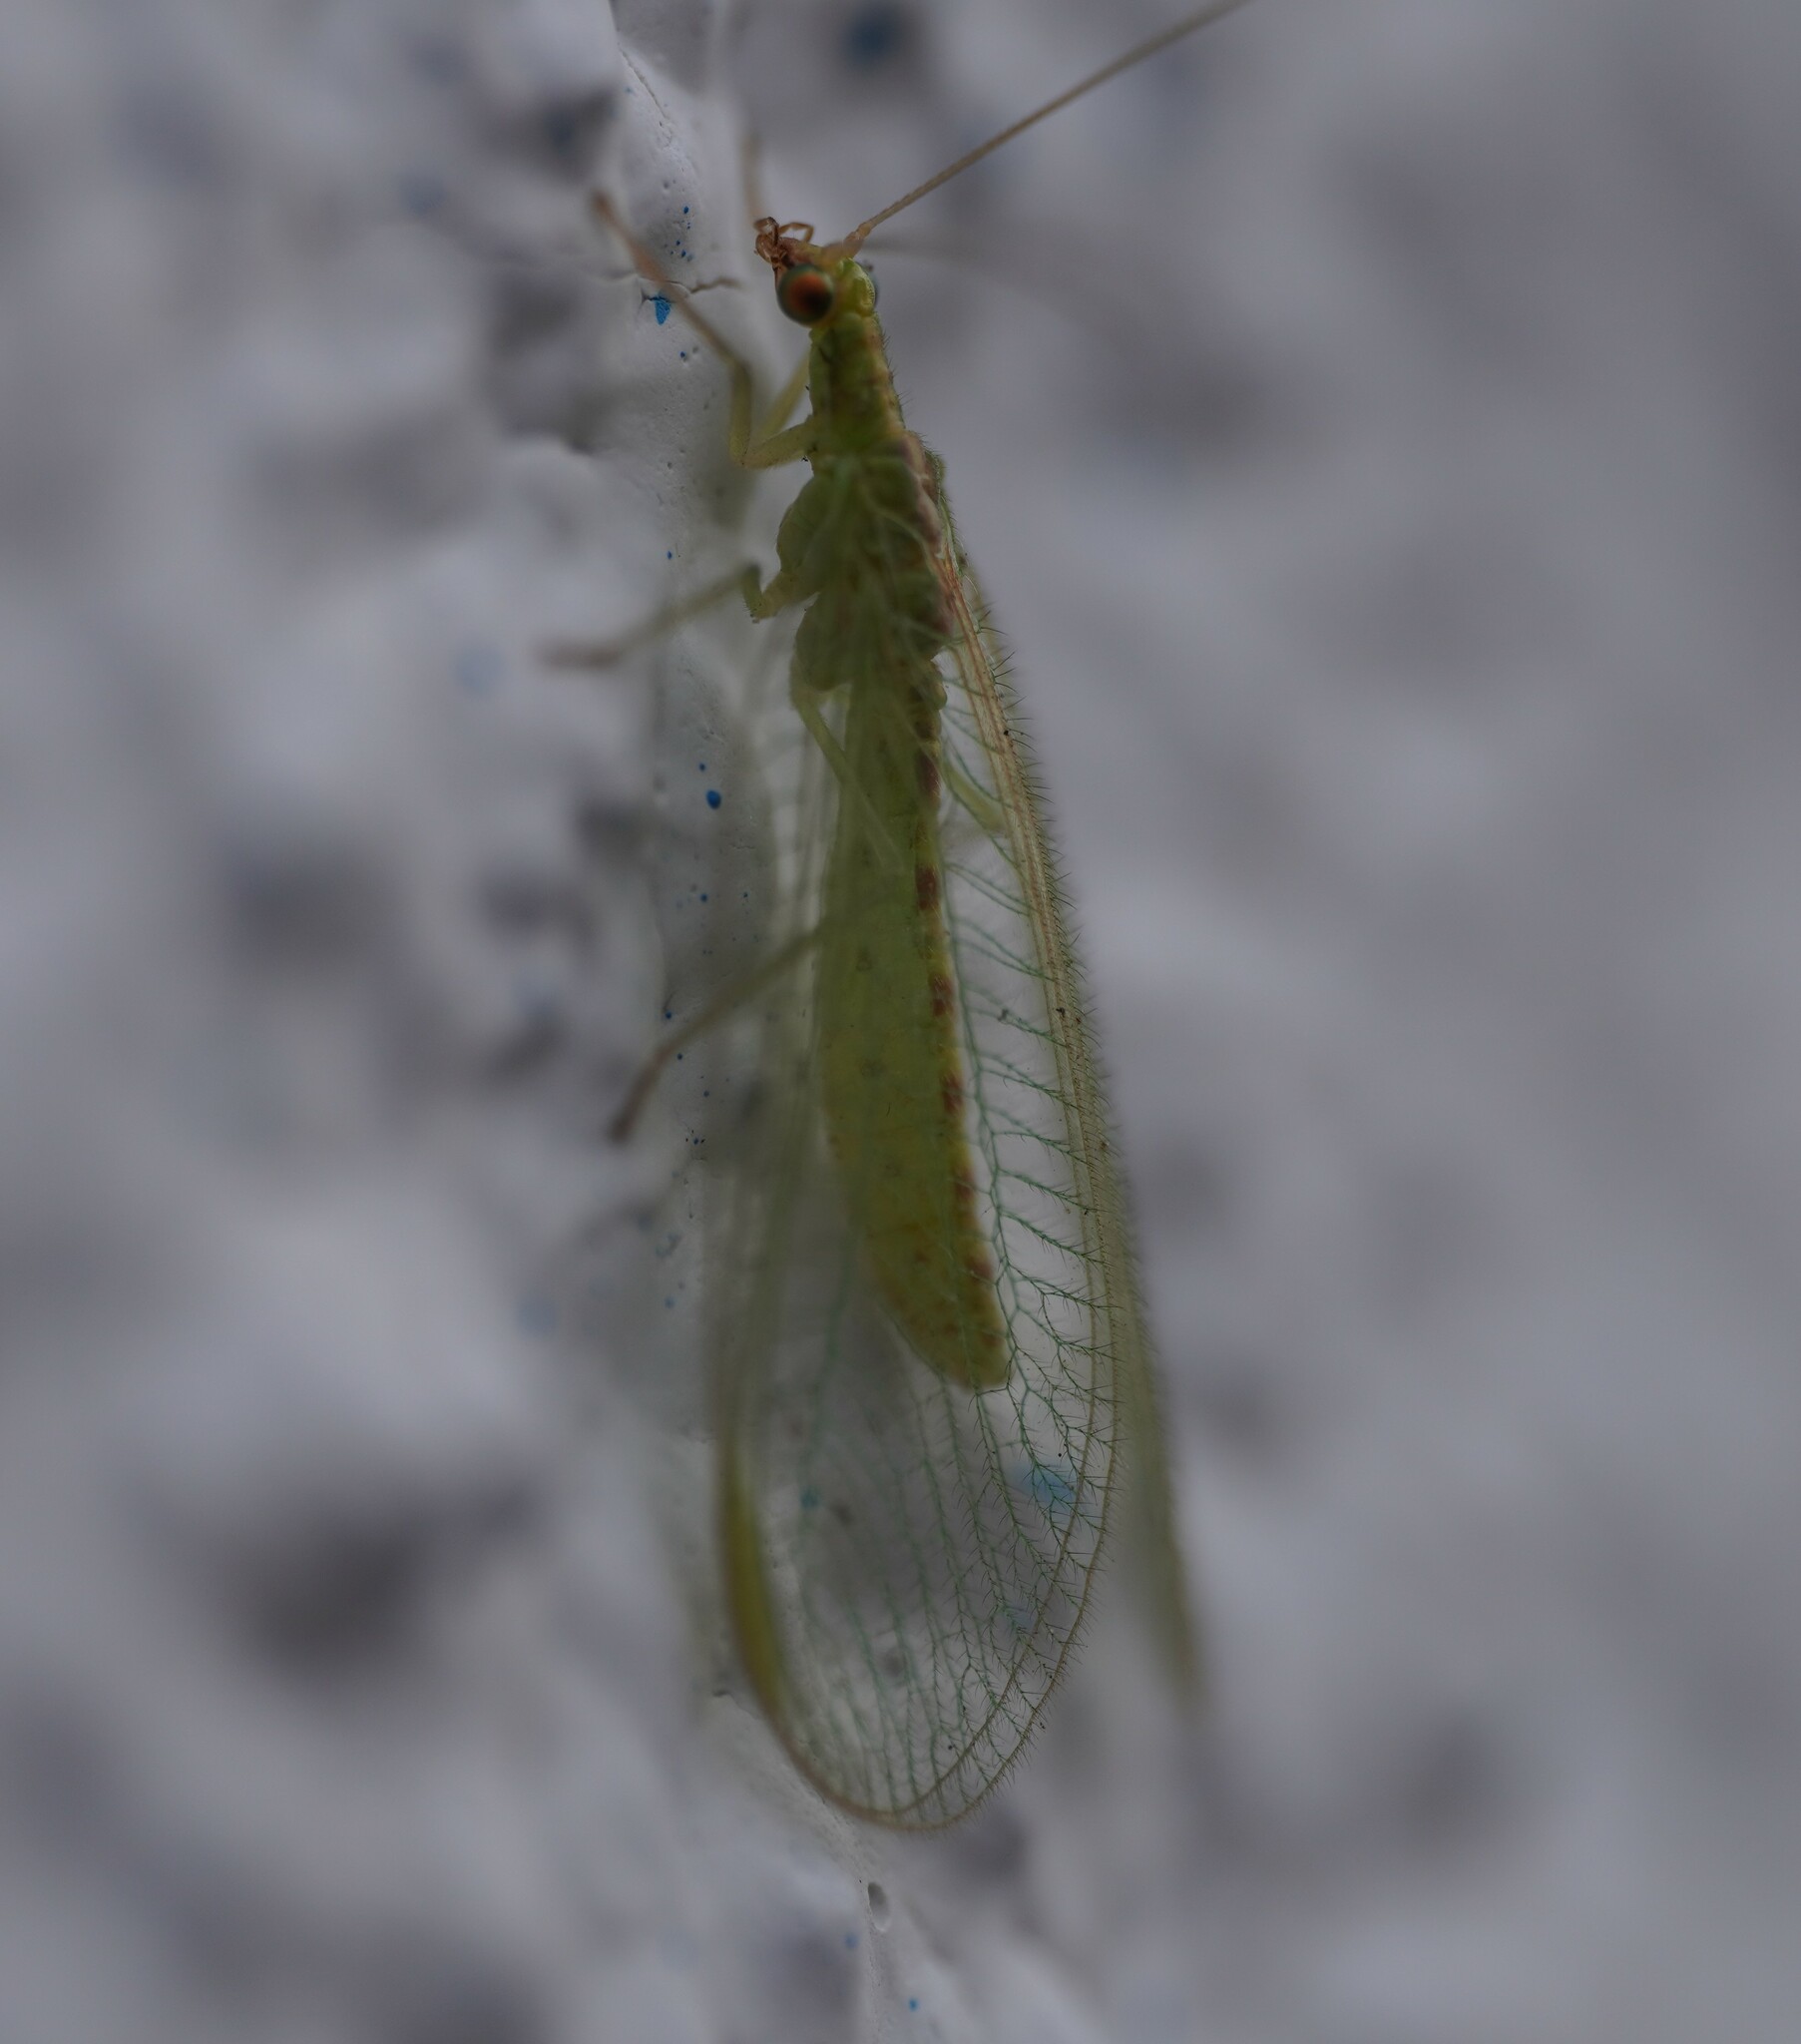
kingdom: Animalia
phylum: Arthropoda
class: Insecta
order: Neuroptera
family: Chrysopidae
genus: Chrysoperla
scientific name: Chrysoperla
